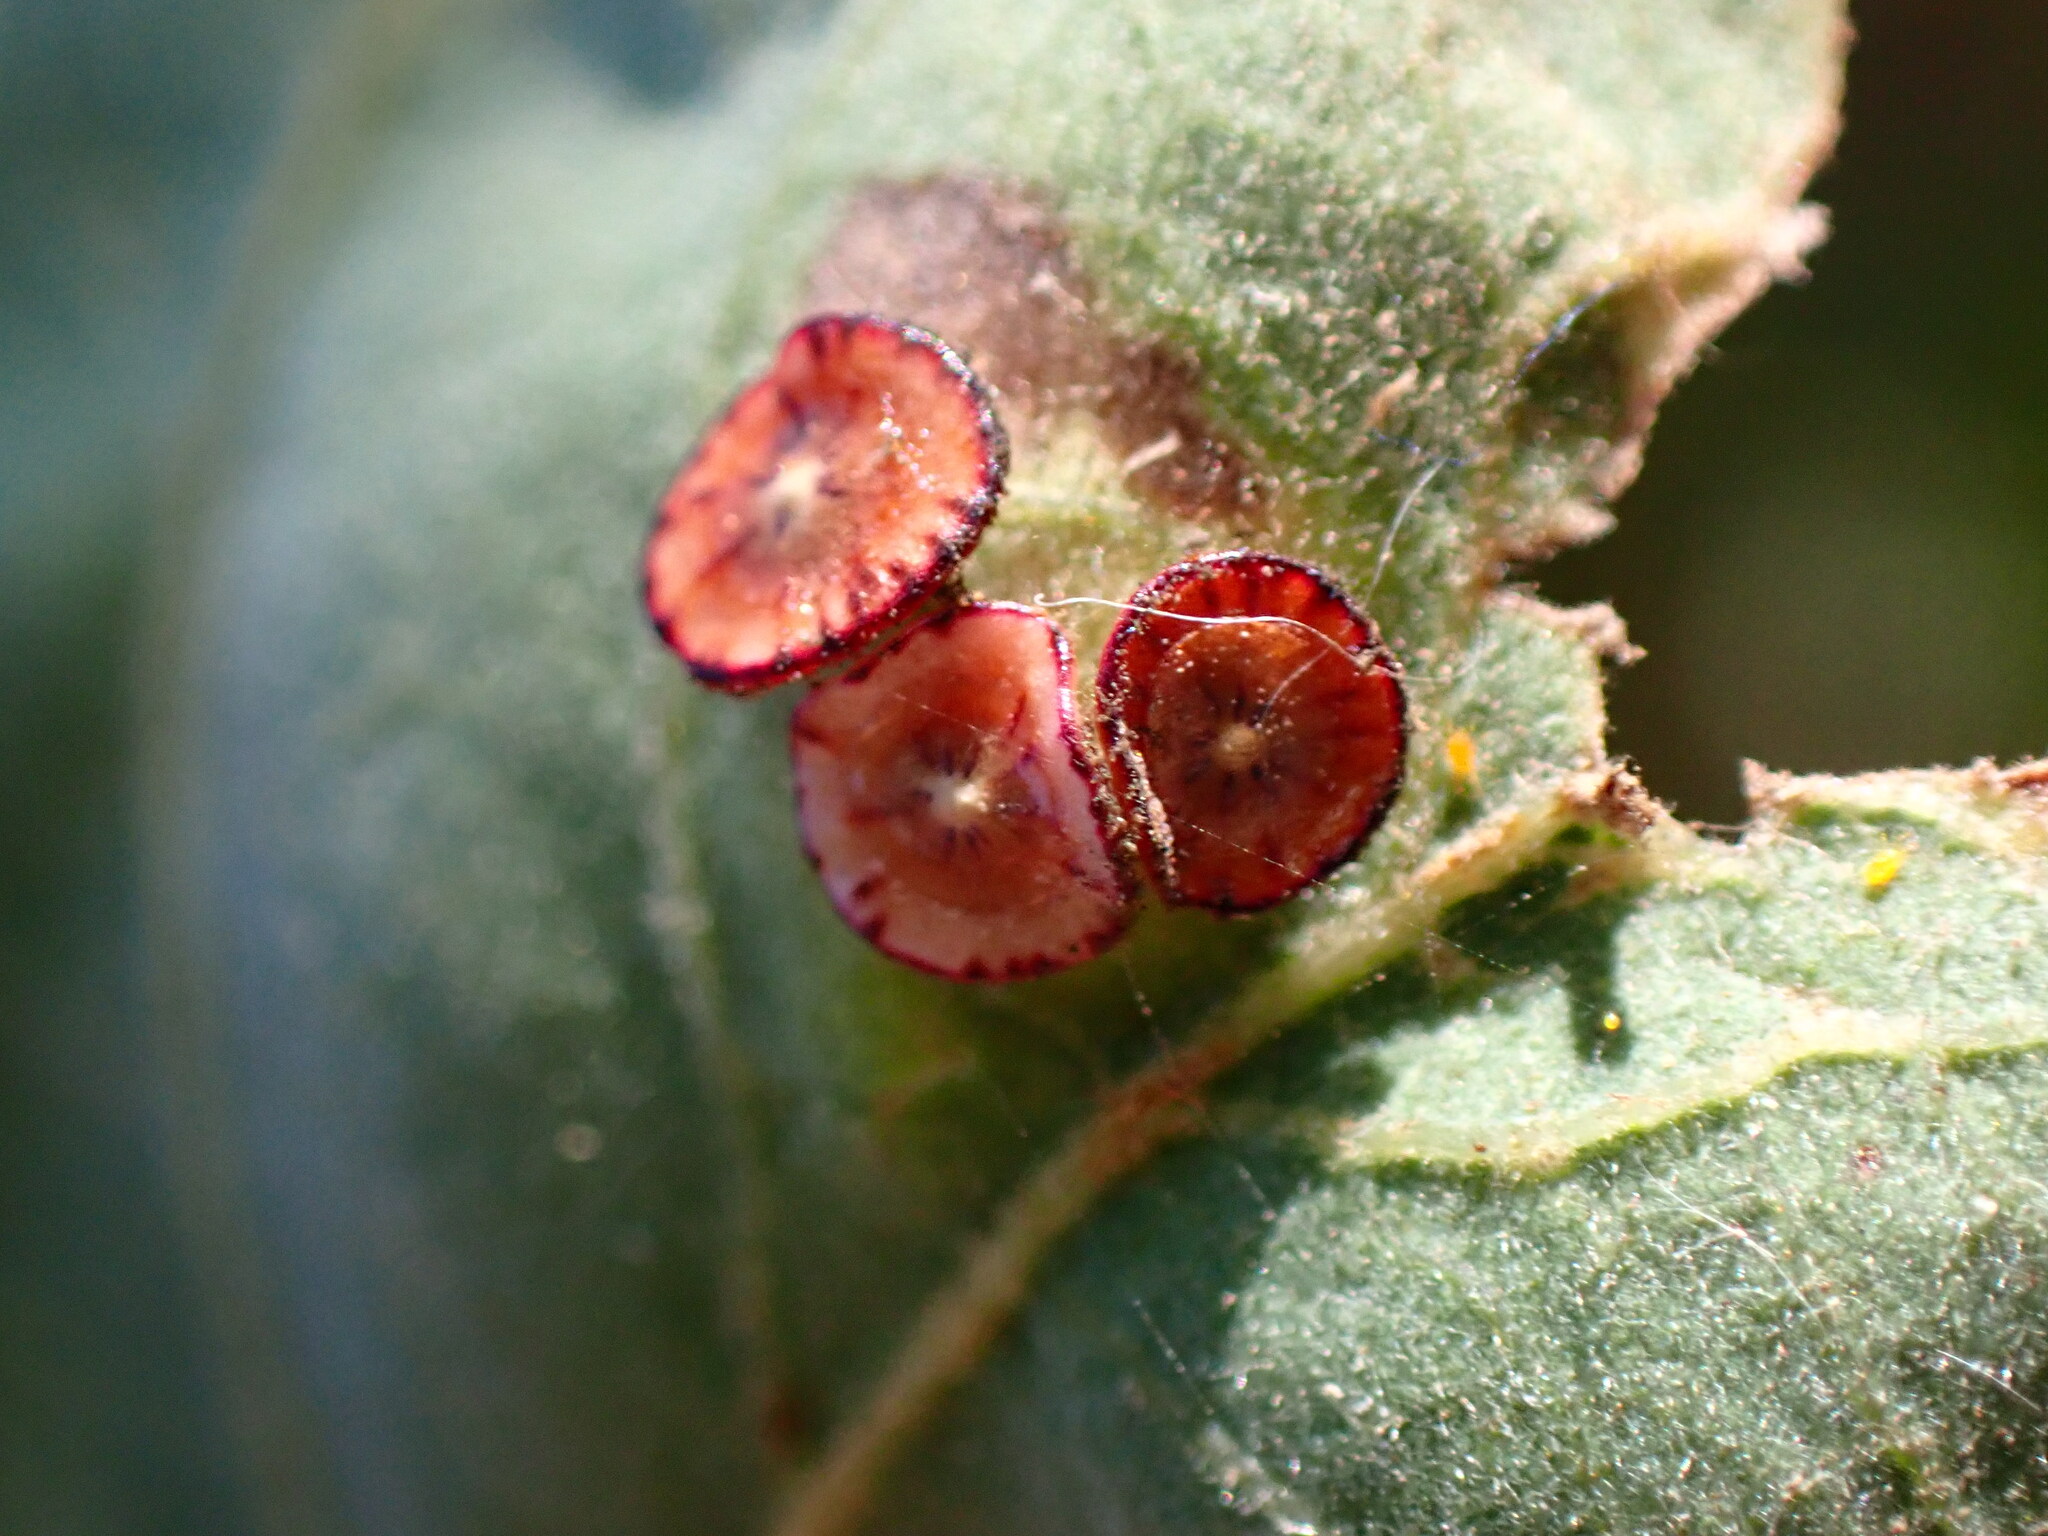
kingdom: Animalia
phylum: Arthropoda
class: Insecta
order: Hymenoptera
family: Cynipidae
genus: Andricus
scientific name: Andricus
